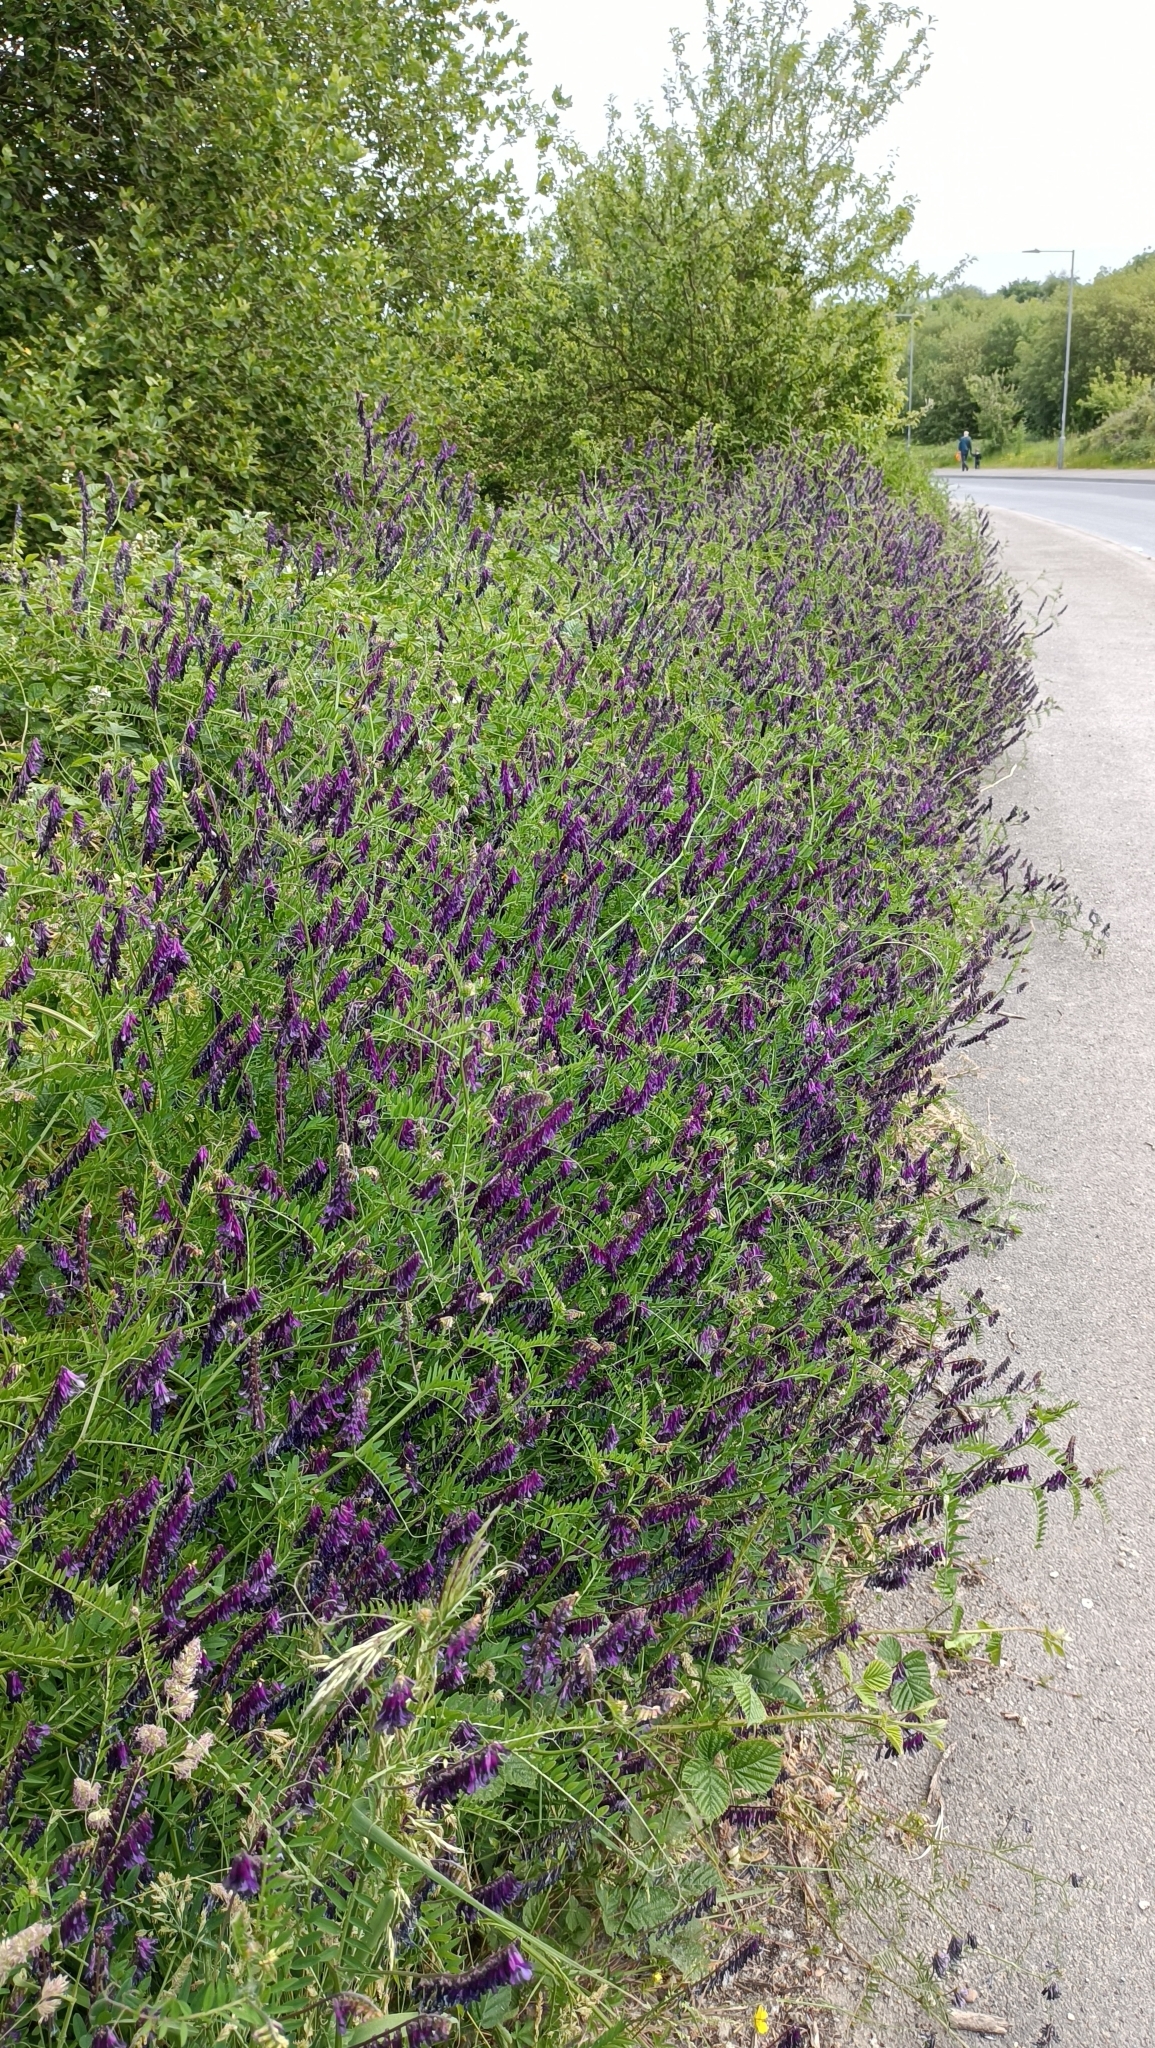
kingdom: Plantae
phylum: Tracheophyta
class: Magnoliopsida
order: Fabales
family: Fabaceae
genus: Vicia
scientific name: Vicia cracca
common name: Bird vetch
